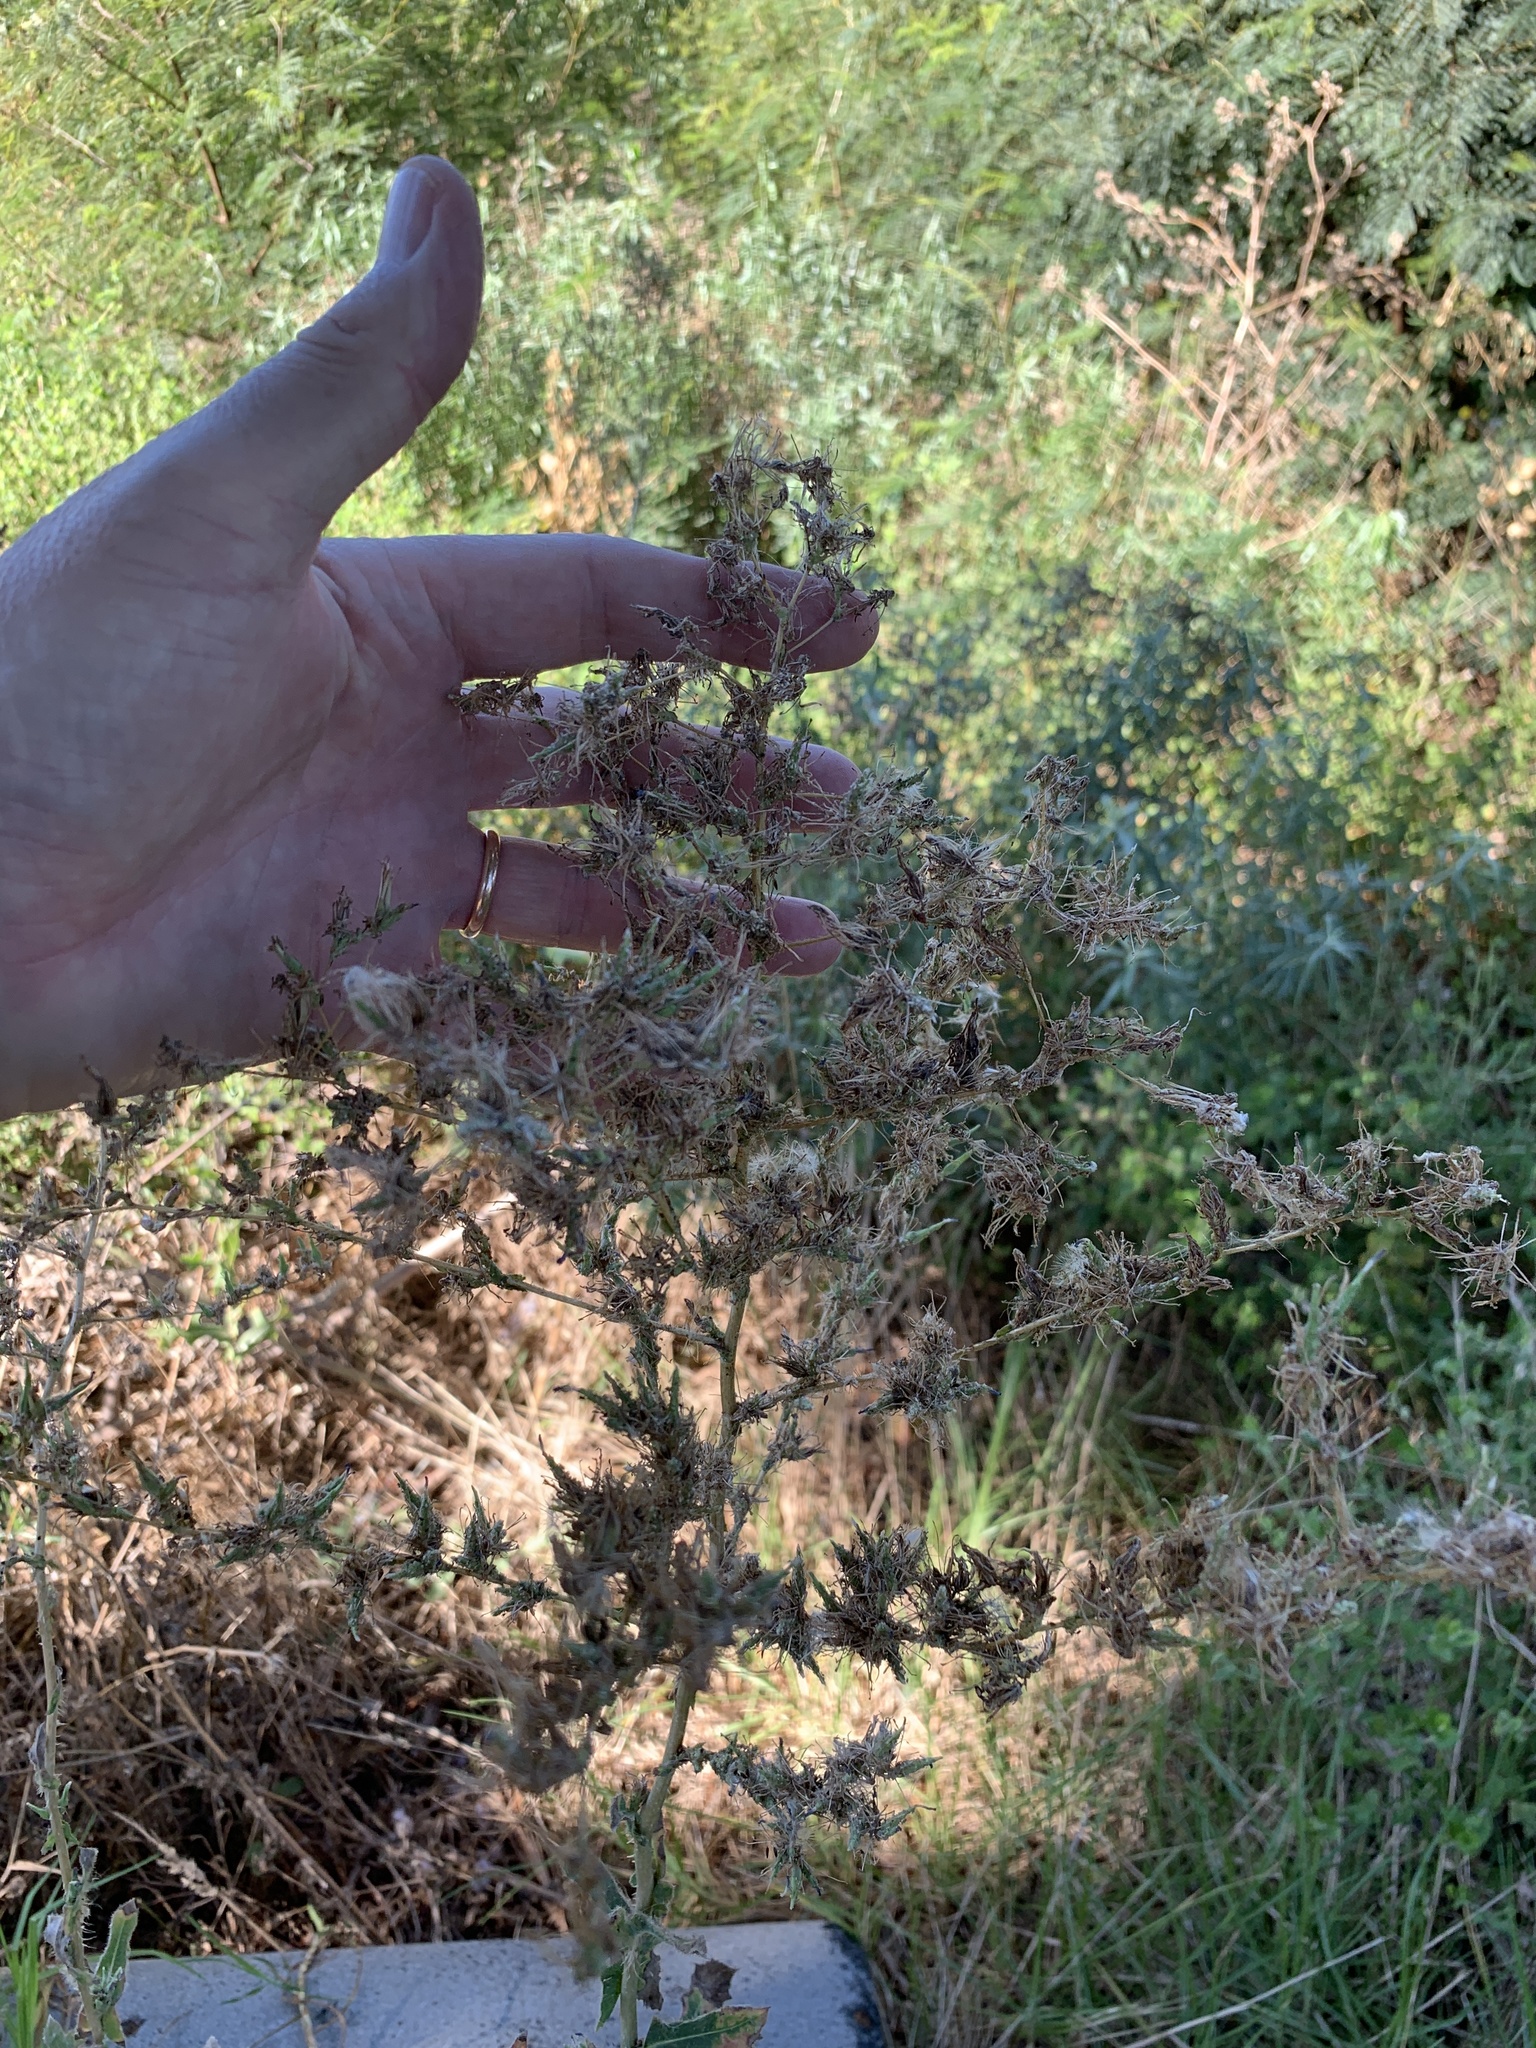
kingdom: Plantae
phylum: Tracheophyta
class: Magnoliopsida
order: Asterales
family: Asteraceae
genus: Lactuca
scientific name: Lactuca serriola
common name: Prickly lettuce
